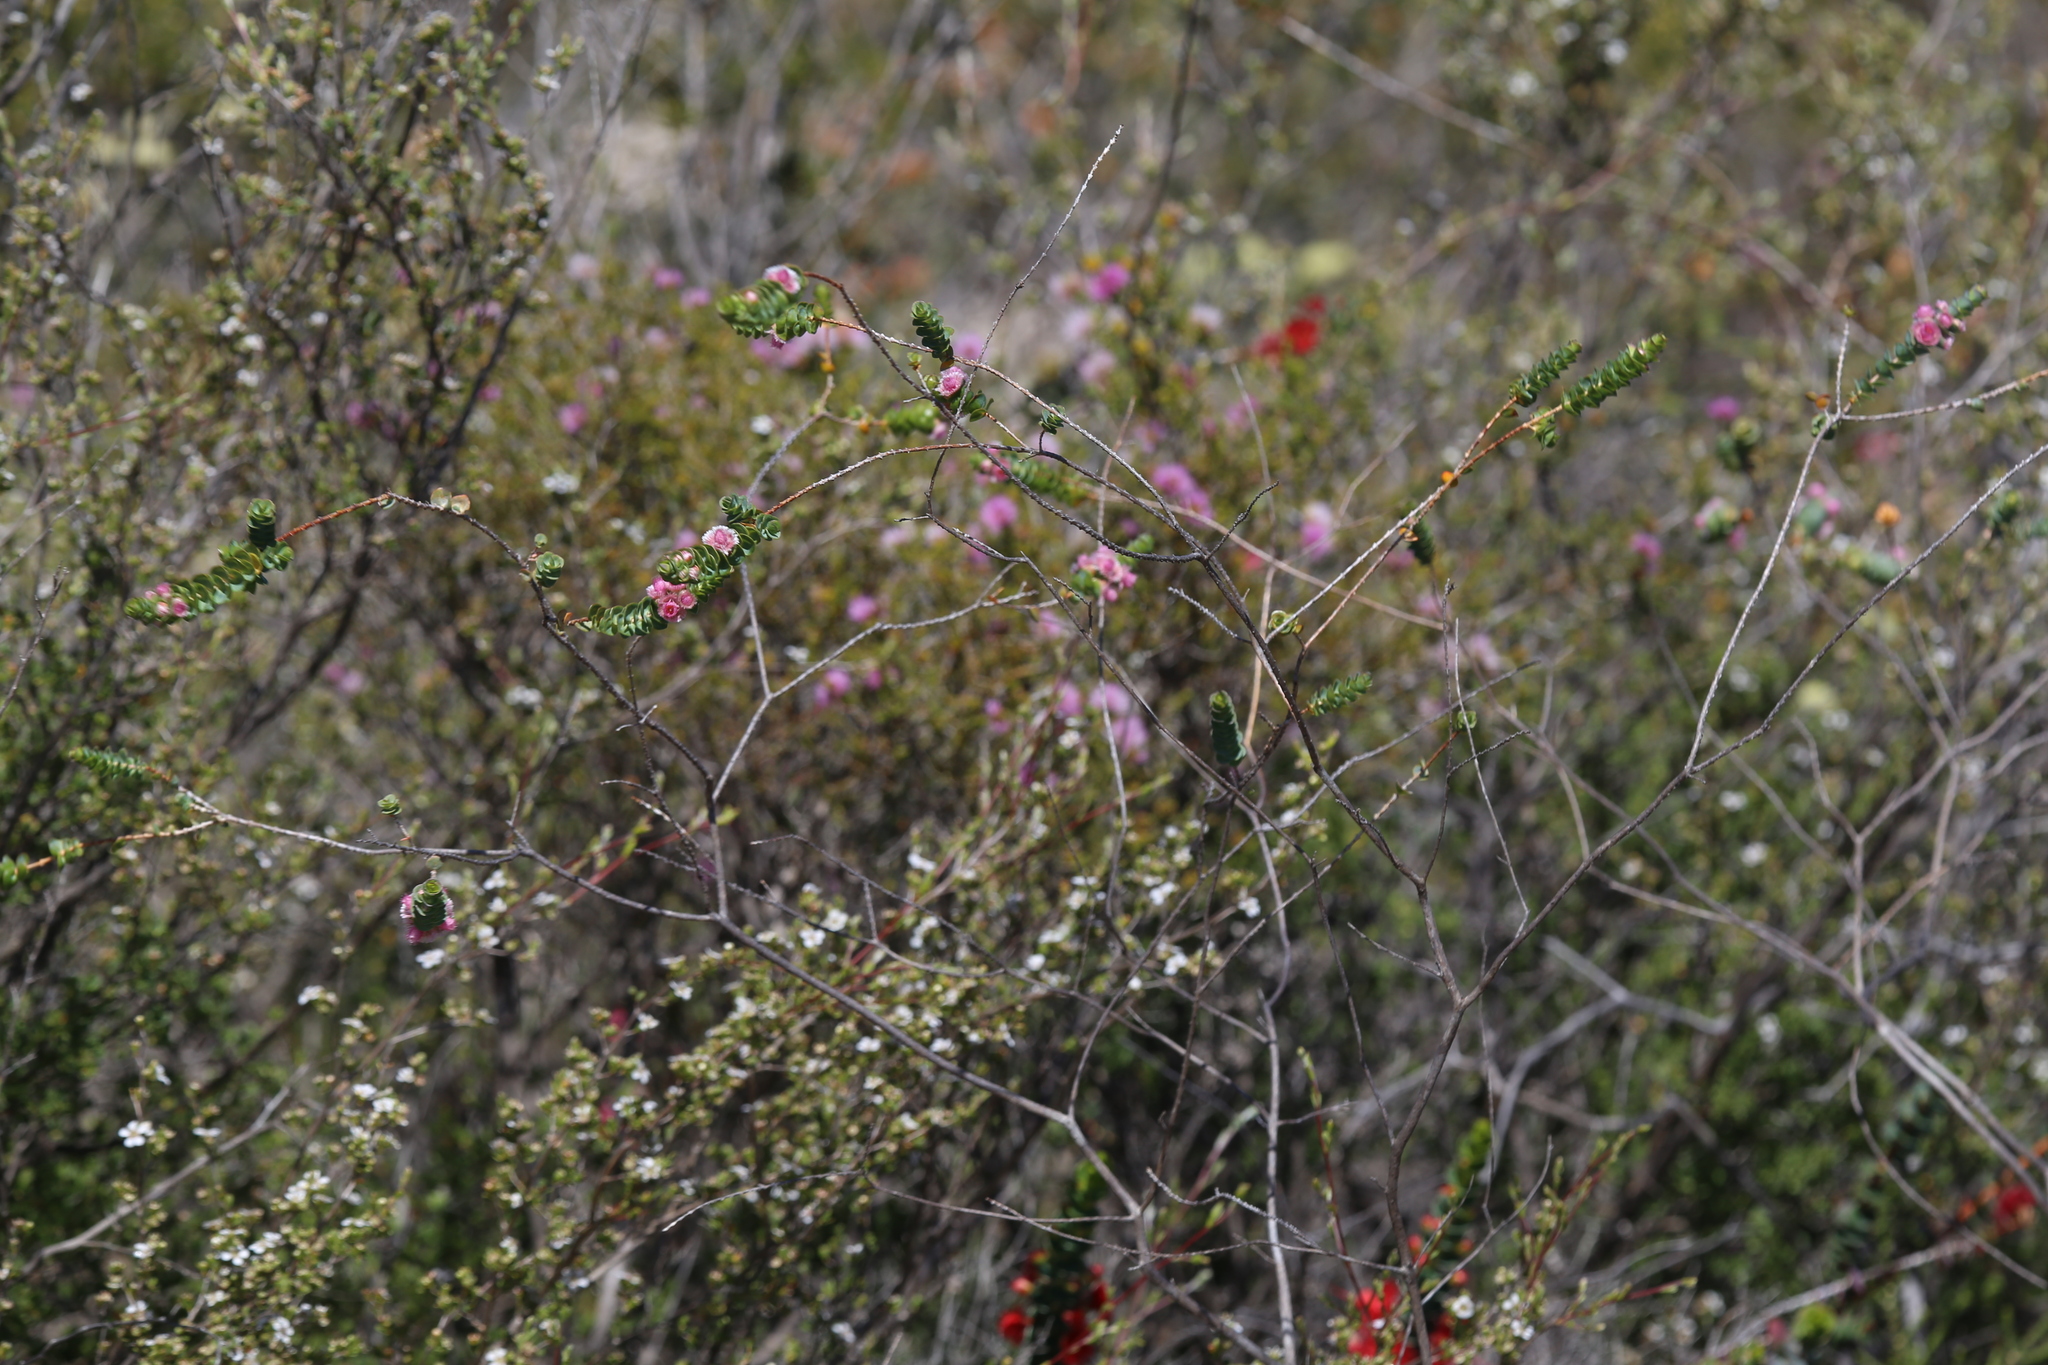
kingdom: Plantae
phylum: Tracheophyta
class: Magnoliopsida
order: Myrtales
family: Myrtaceae
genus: Verticordia
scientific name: Verticordia argentea
